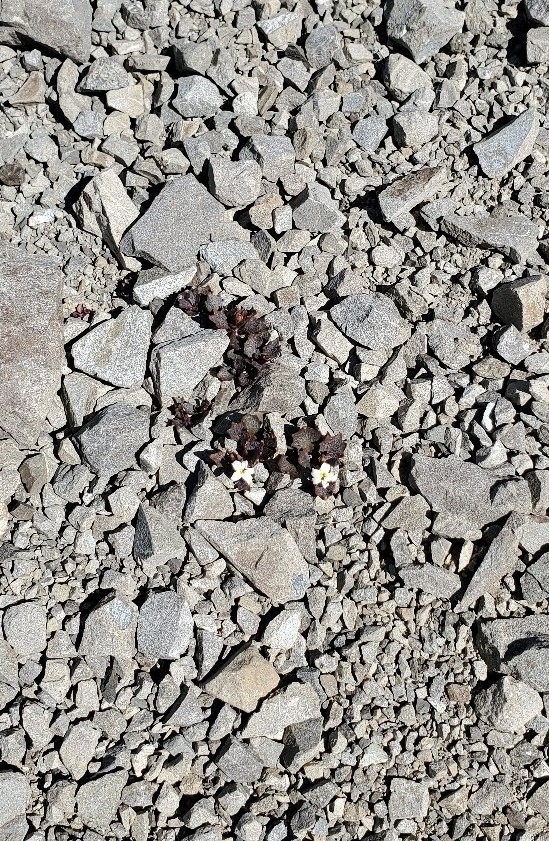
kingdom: Plantae
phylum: Tracheophyta
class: Magnoliopsida
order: Asterales
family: Campanulaceae
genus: Lobelia
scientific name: Lobelia roughii
